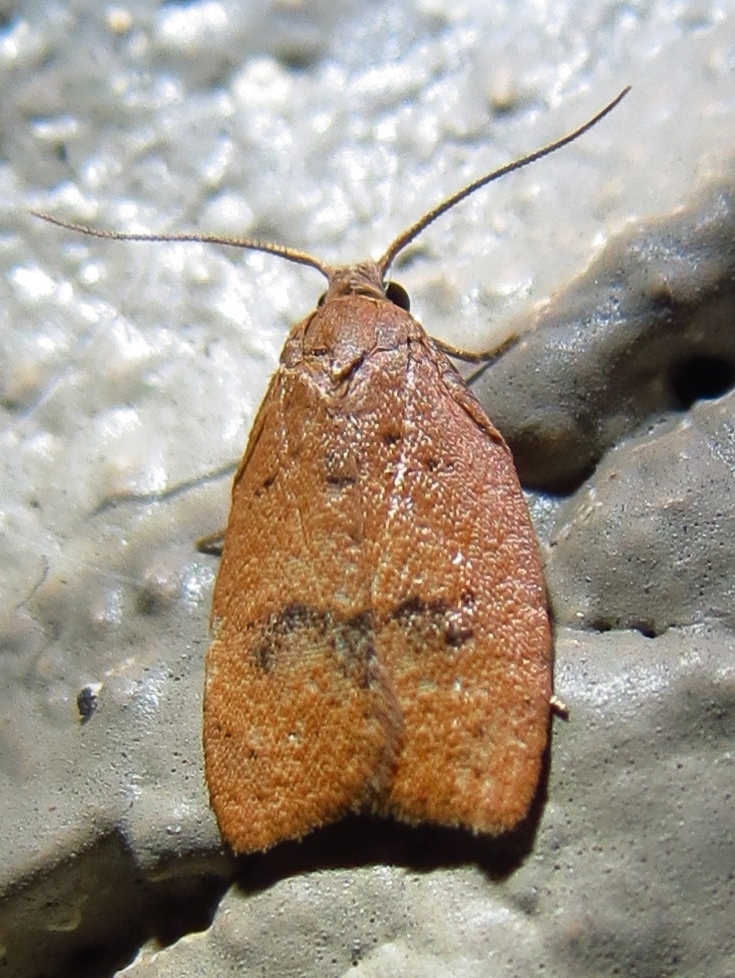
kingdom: Animalia
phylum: Arthropoda
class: Insecta
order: Lepidoptera
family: Tortricidae
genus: Sparganothoides
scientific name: Sparganothoides lentiginosana
